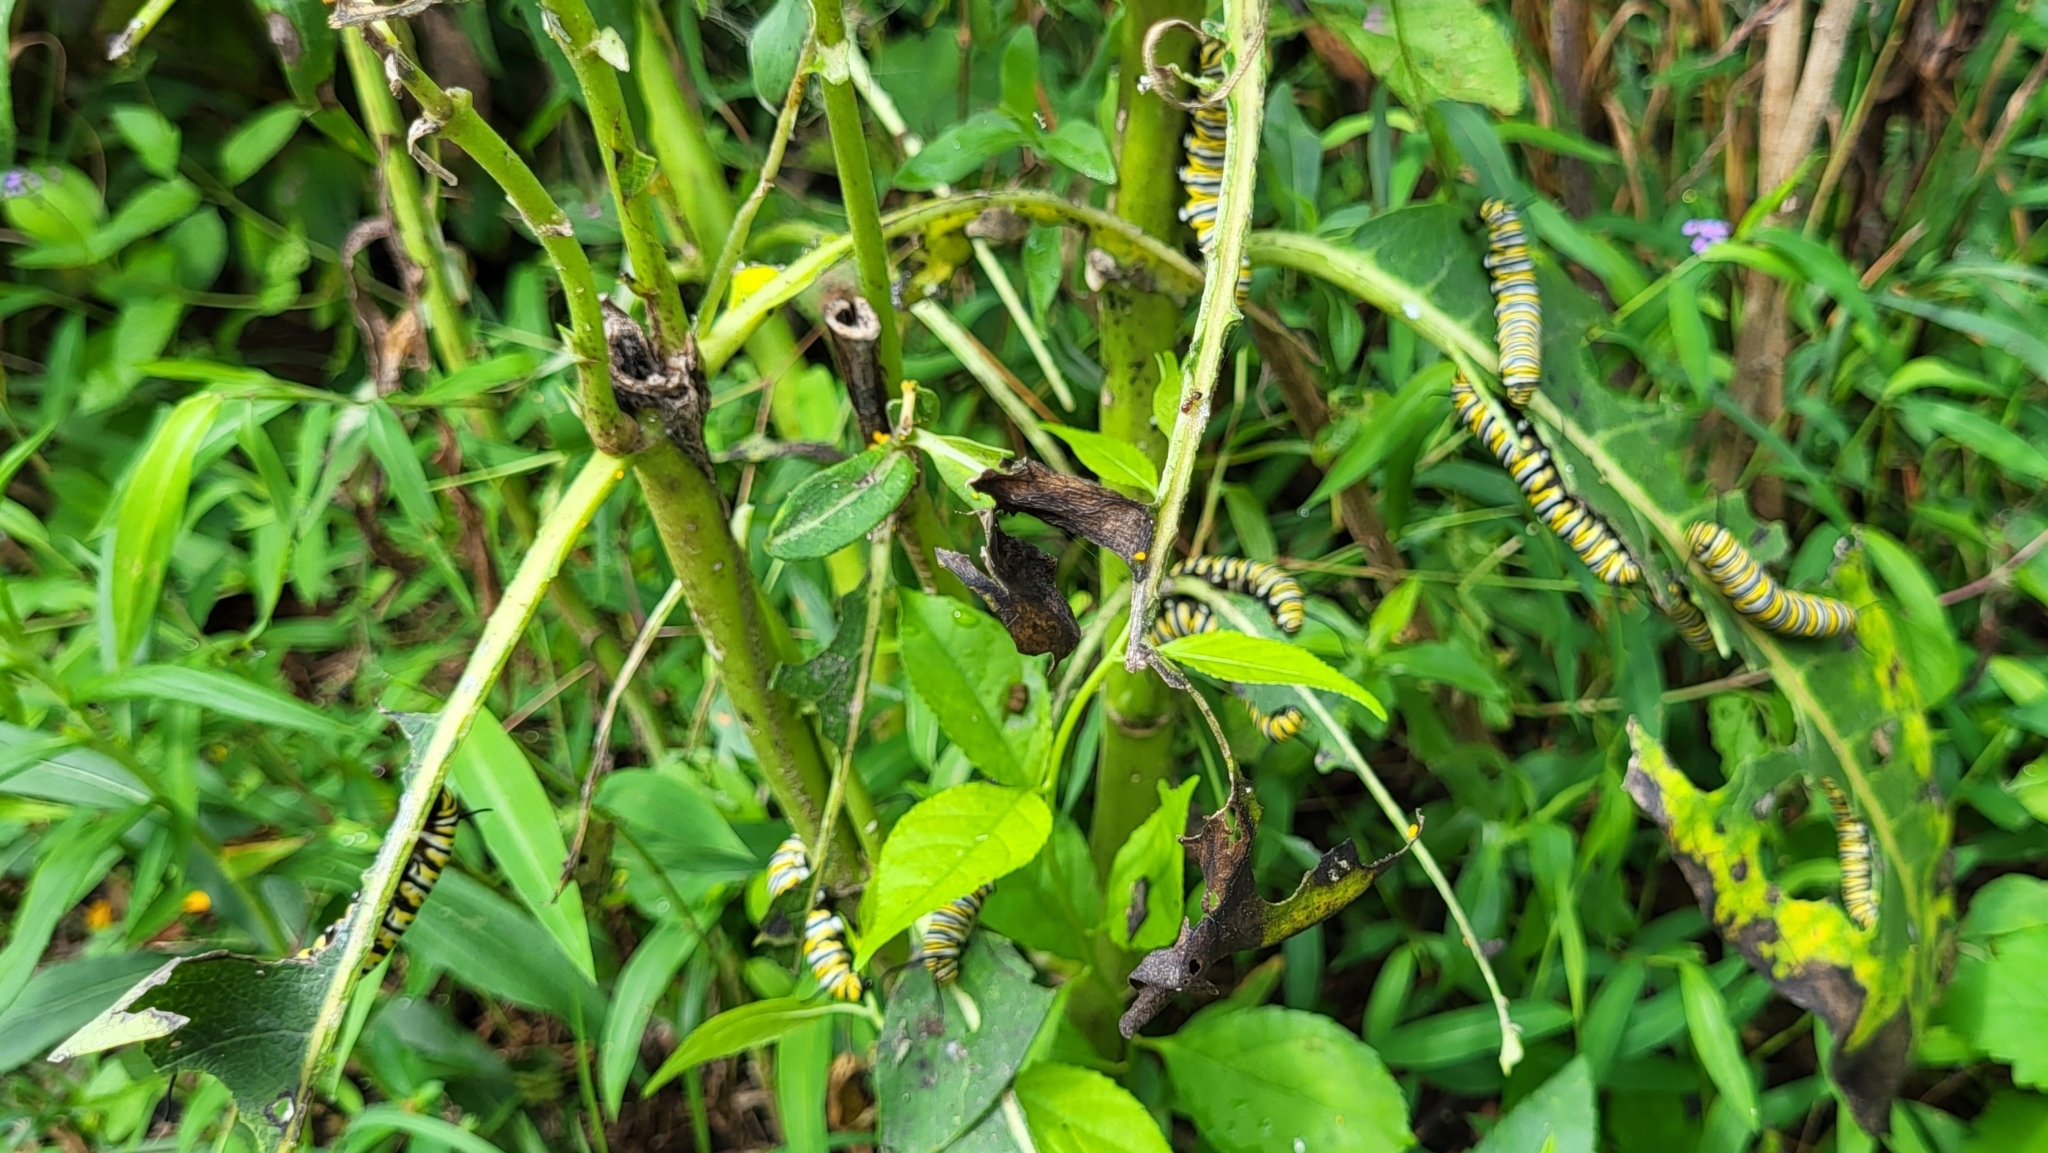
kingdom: Animalia
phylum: Arthropoda
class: Insecta
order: Lepidoptera
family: Nymphalidae
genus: Danaus
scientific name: Danaus plexippus
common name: Monarch
